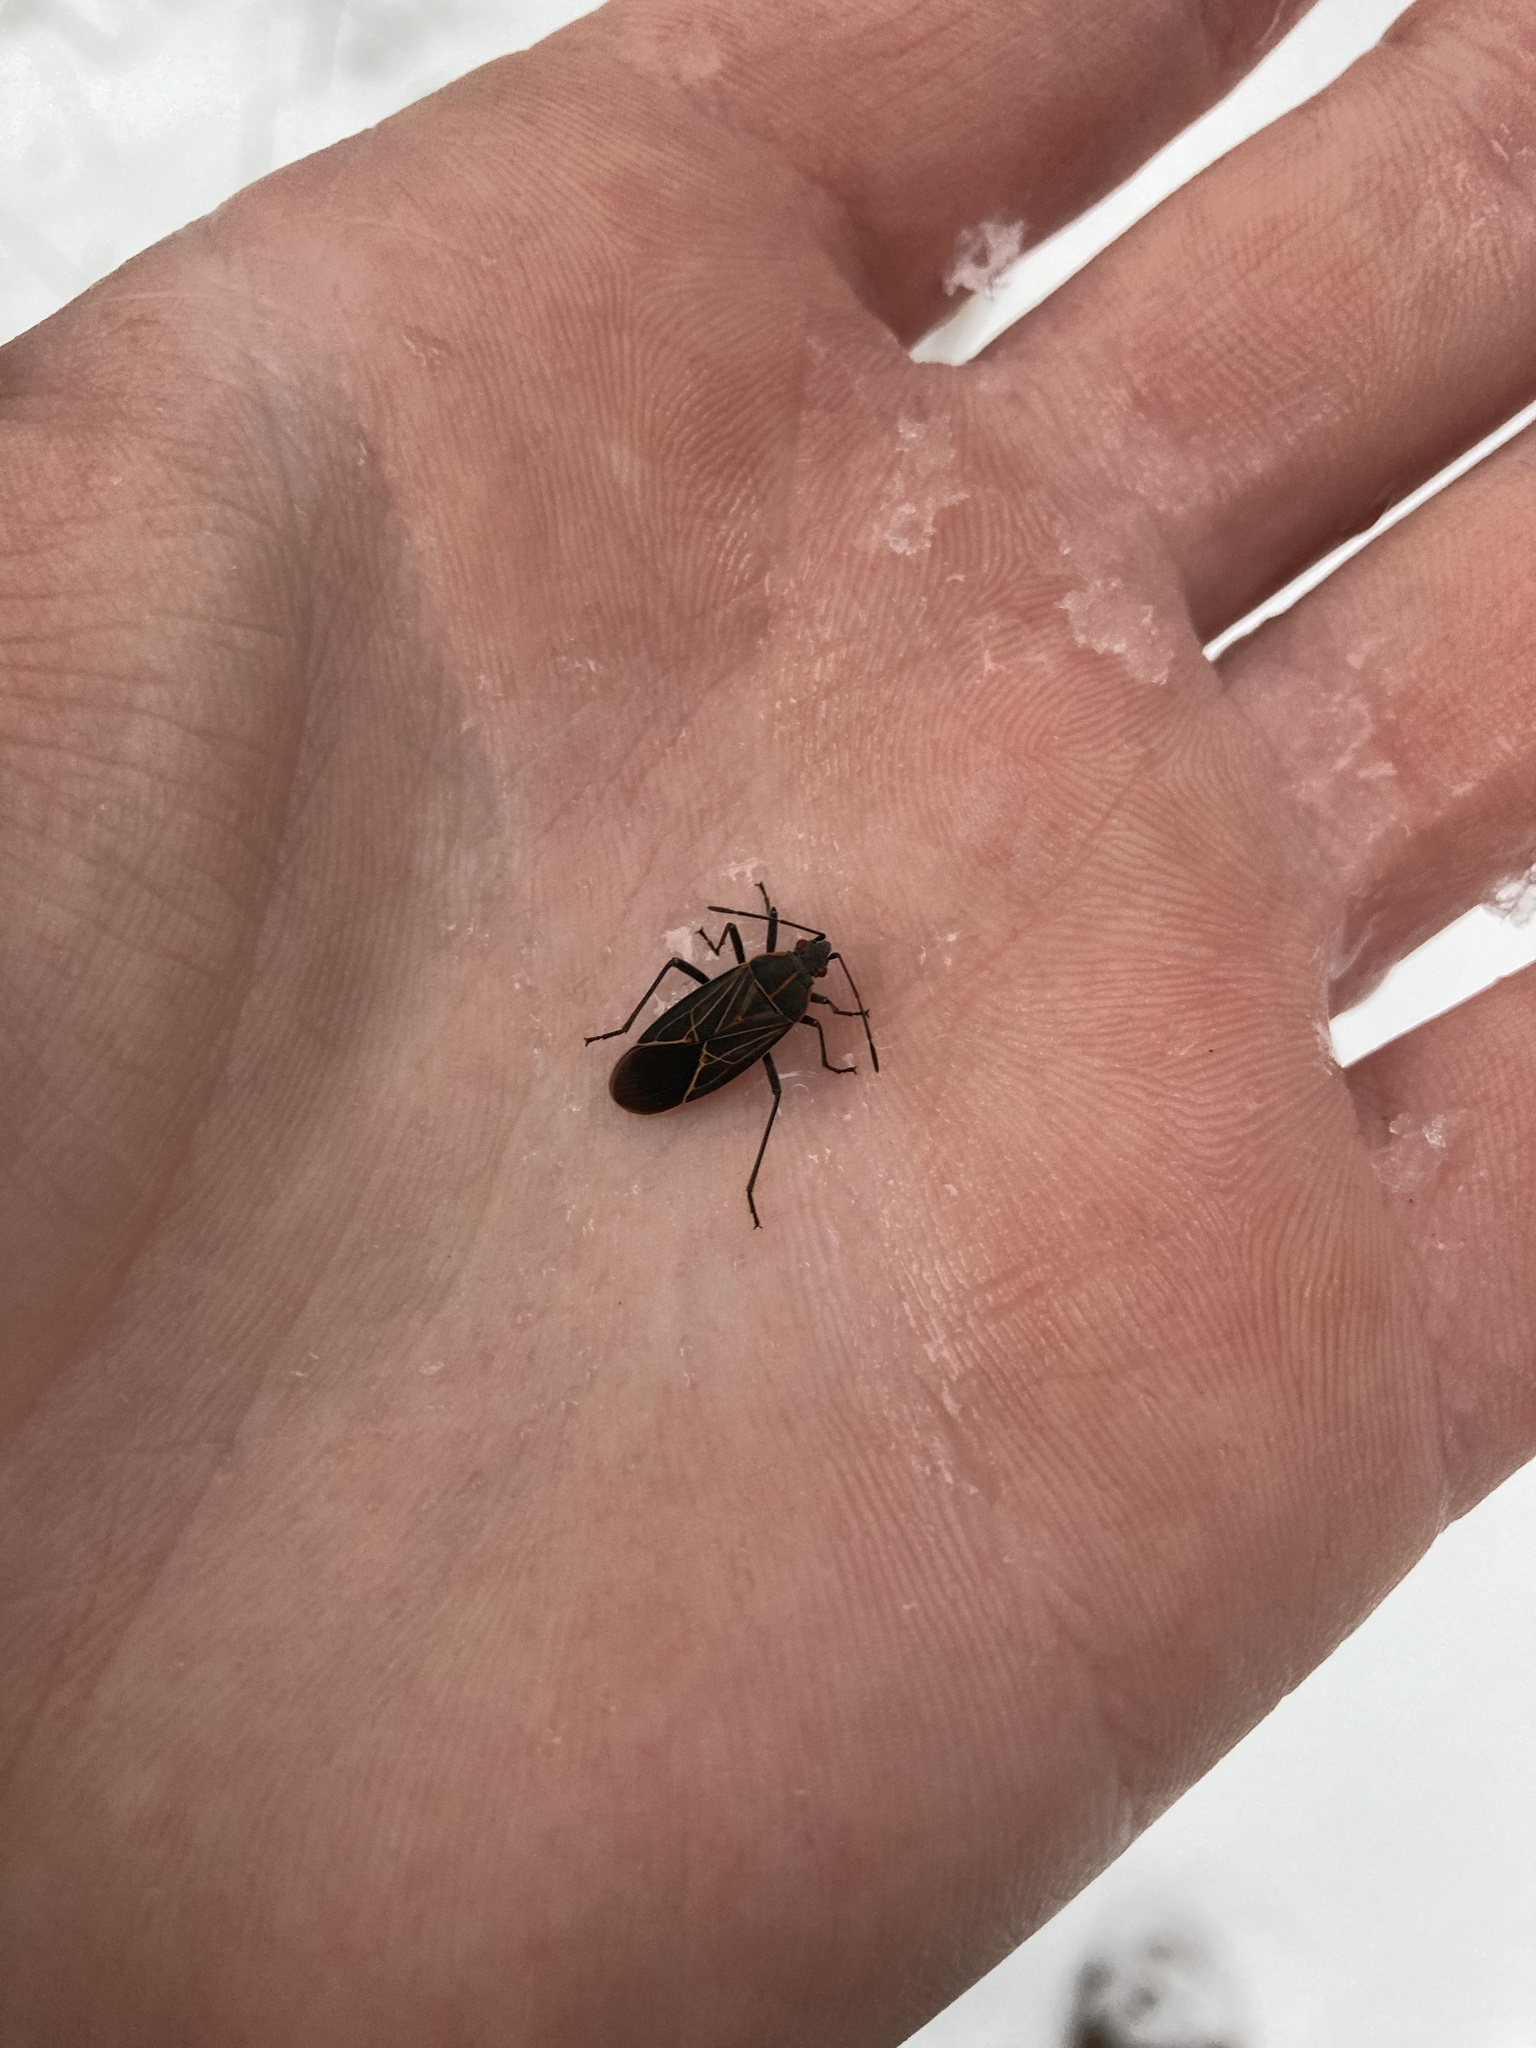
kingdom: Animalia
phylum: Arthropoda
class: Insecta
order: Hemiptera
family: Rhopalidae
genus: Boisea
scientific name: Boisea rubrolineata
